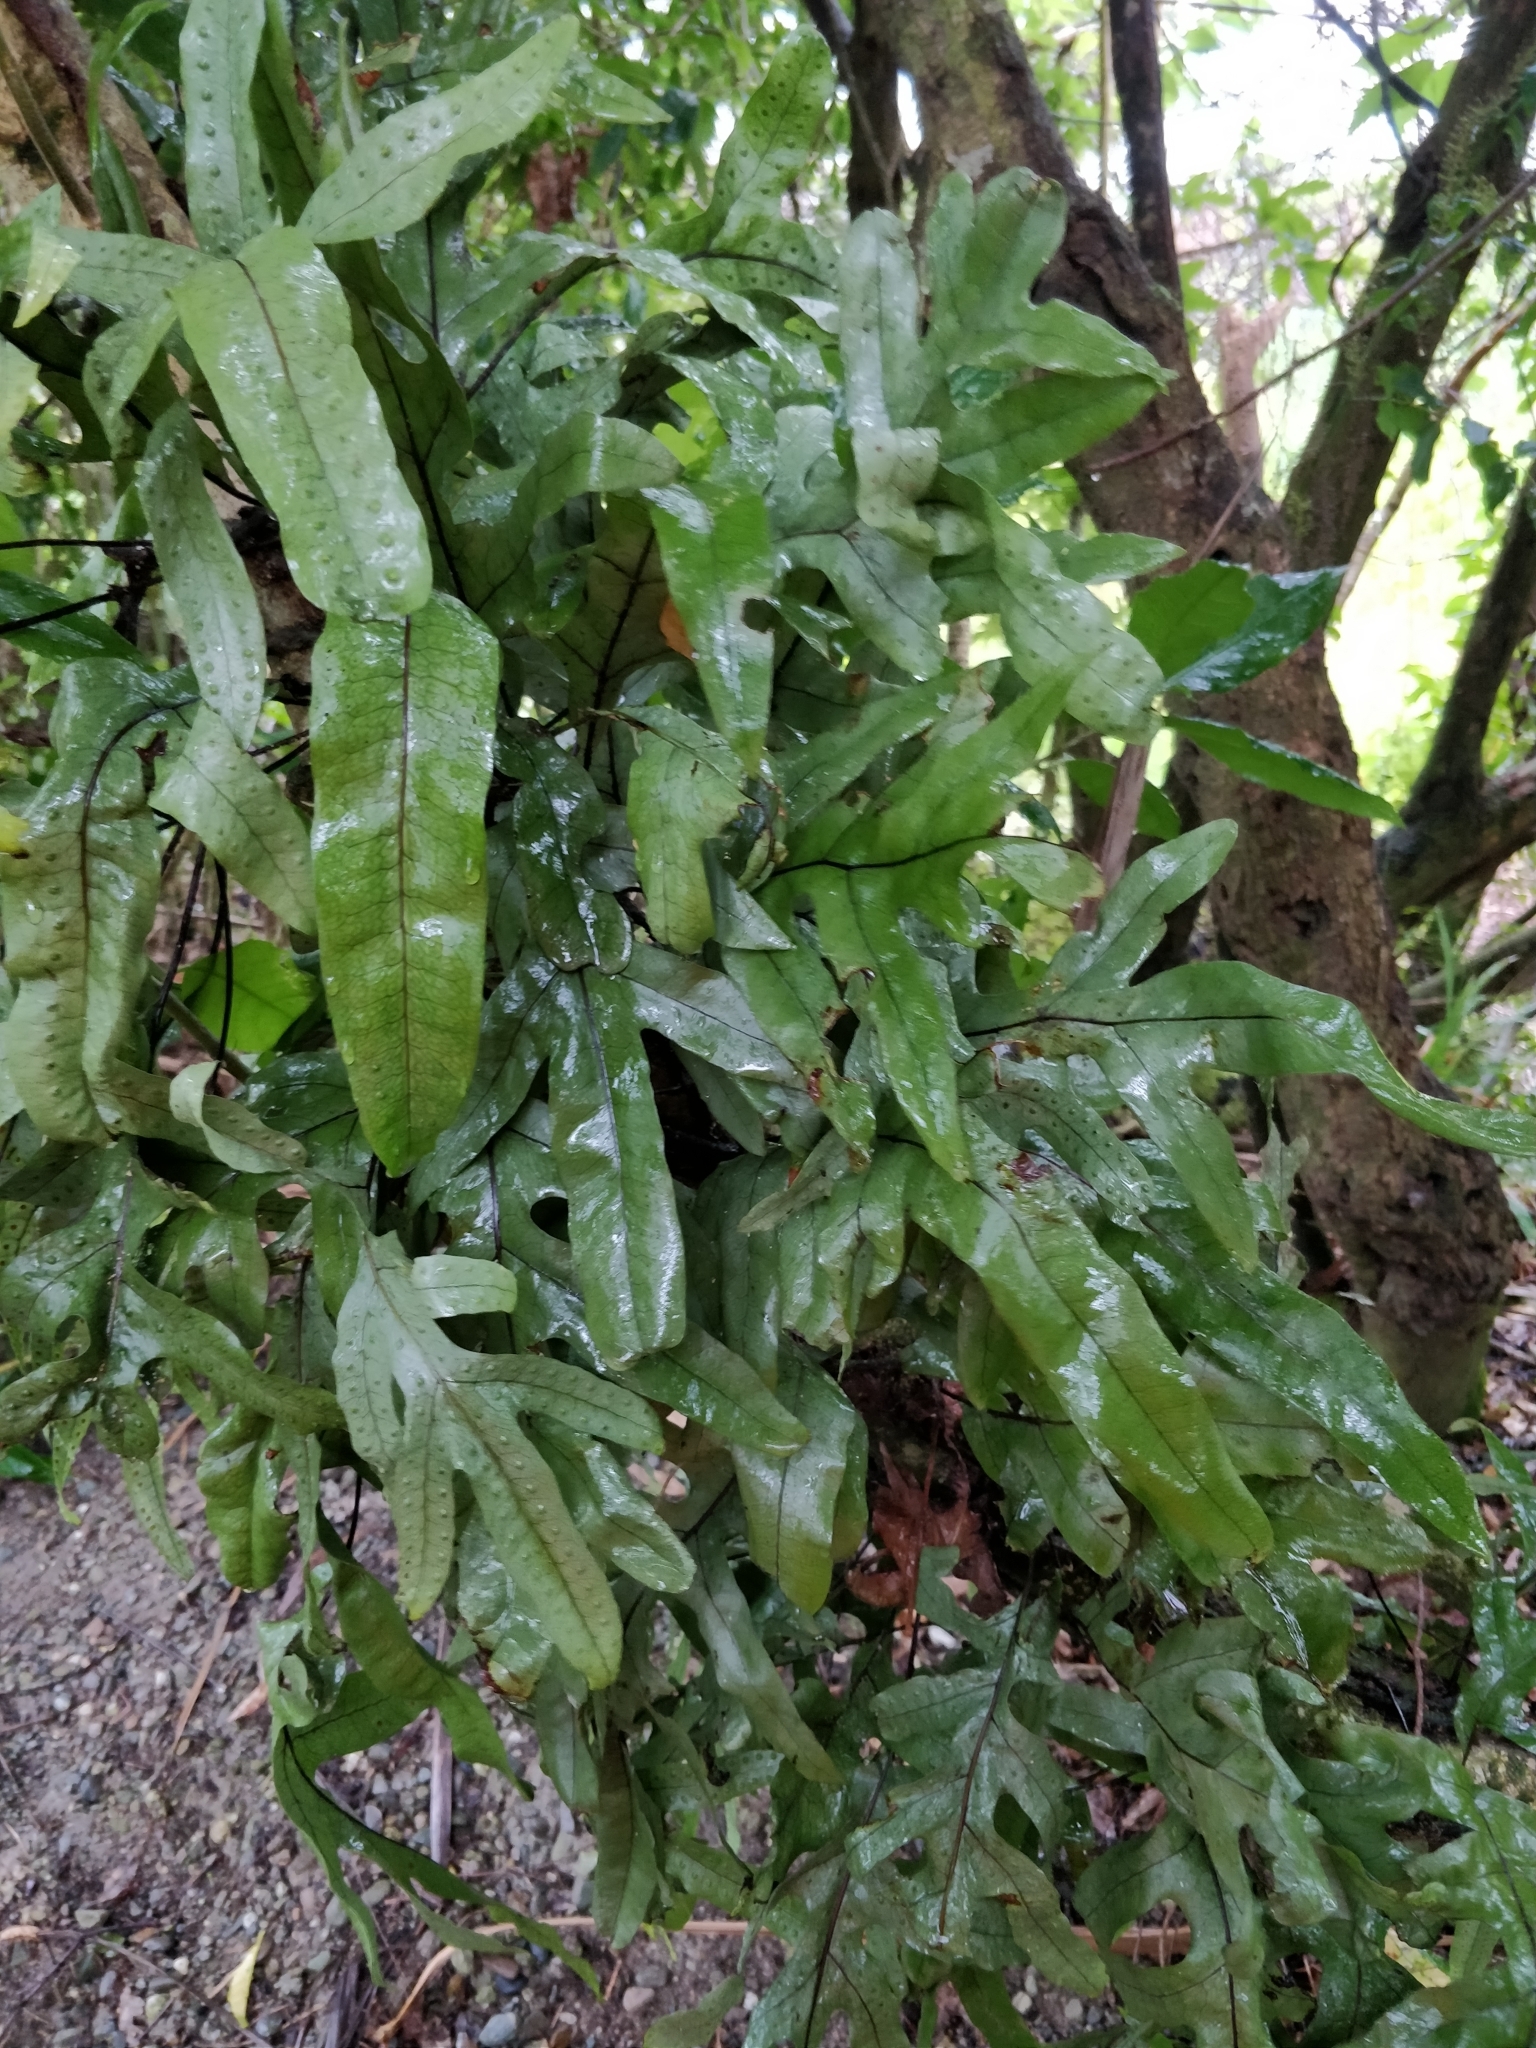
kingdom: Plantae
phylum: Tracheophyta
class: Polypodiopsida
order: Polypodiales
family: Polypodiaceae
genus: Lecanopteris
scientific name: Lecanopteris pustulata
